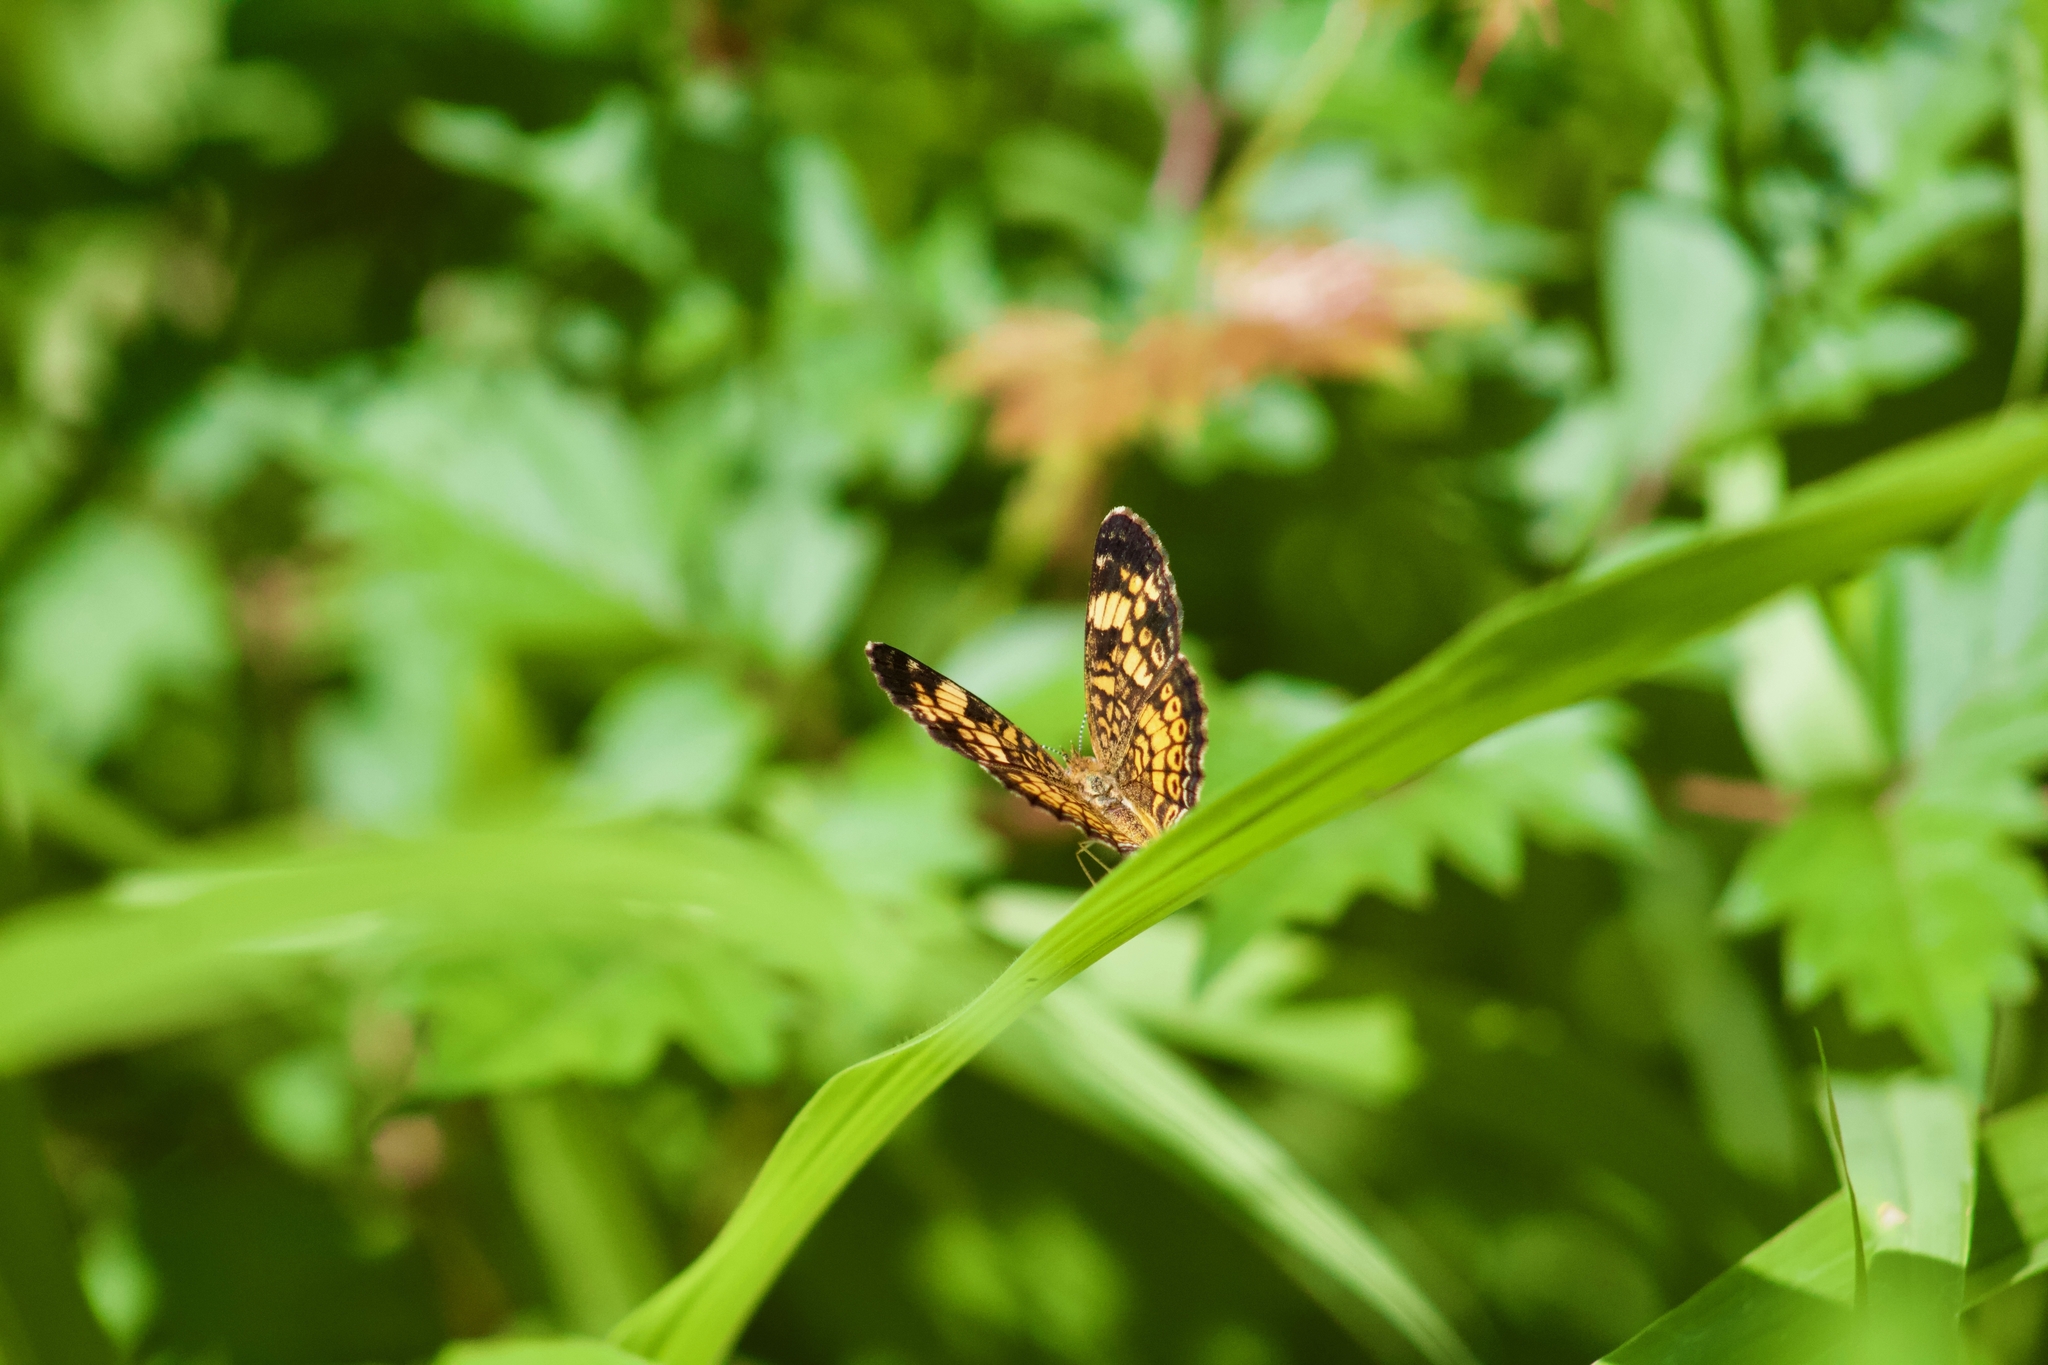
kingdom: Animalia
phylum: Arthropoda
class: Insecta
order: Lepidoptera
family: Nymphalidae
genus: Phyciodes
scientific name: Phyciodes tharos
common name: Pearl crescent
